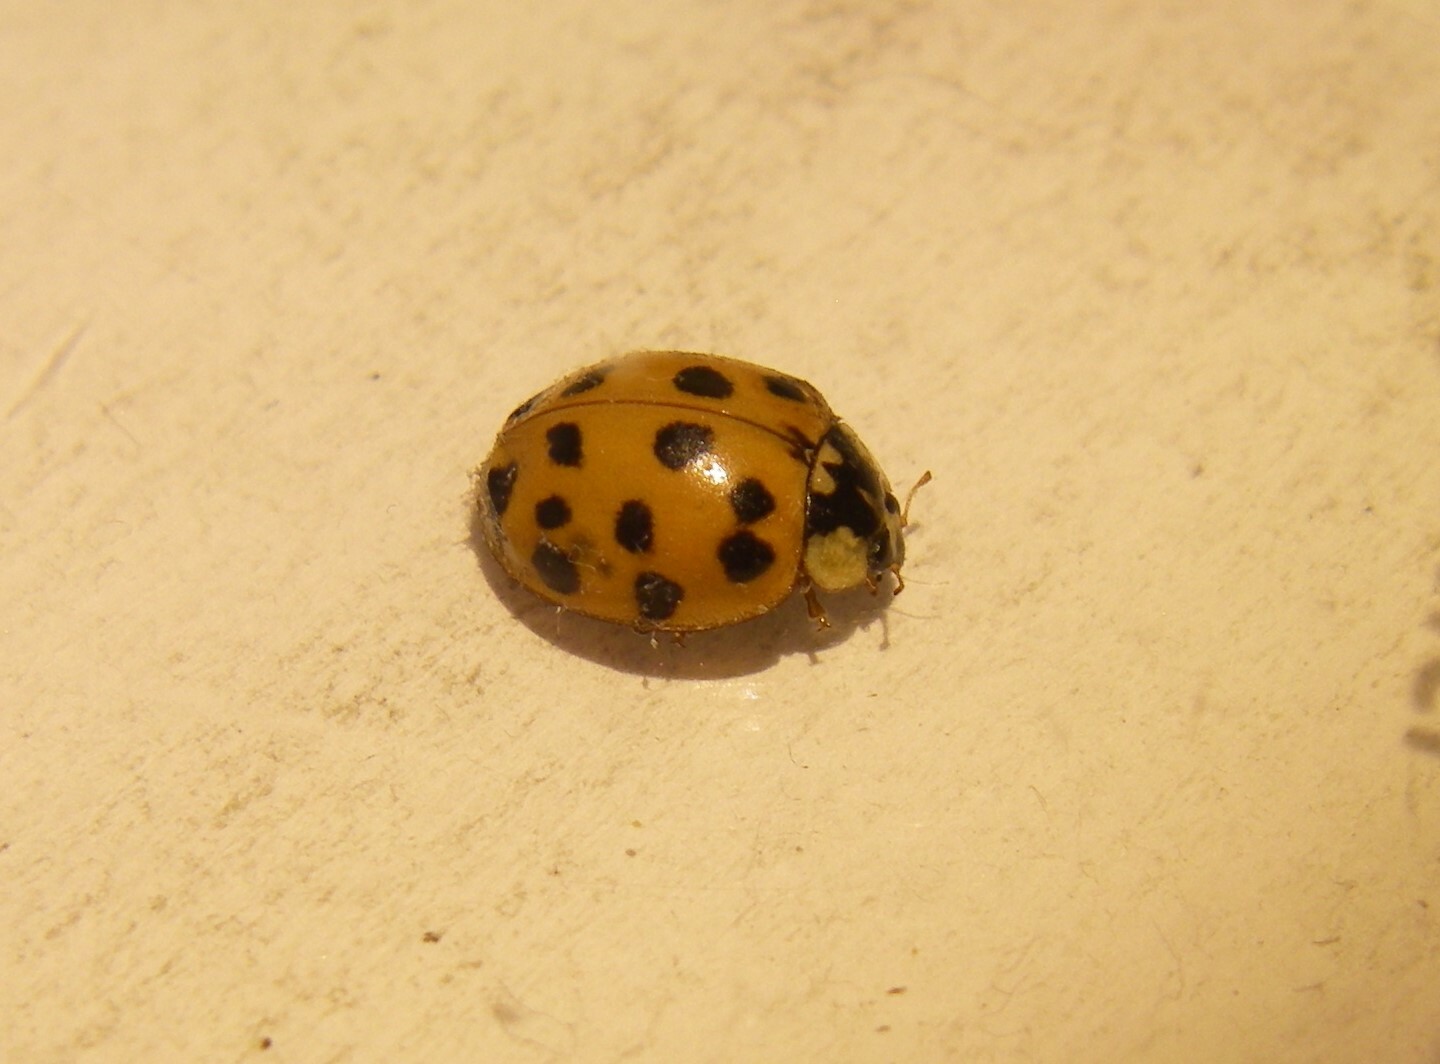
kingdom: Animalia
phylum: Arthropoda
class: Insecta
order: Coleoptera
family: Coccinellidae
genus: Harmonia
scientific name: Harmonia axyridis
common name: Harlequin ladybird
